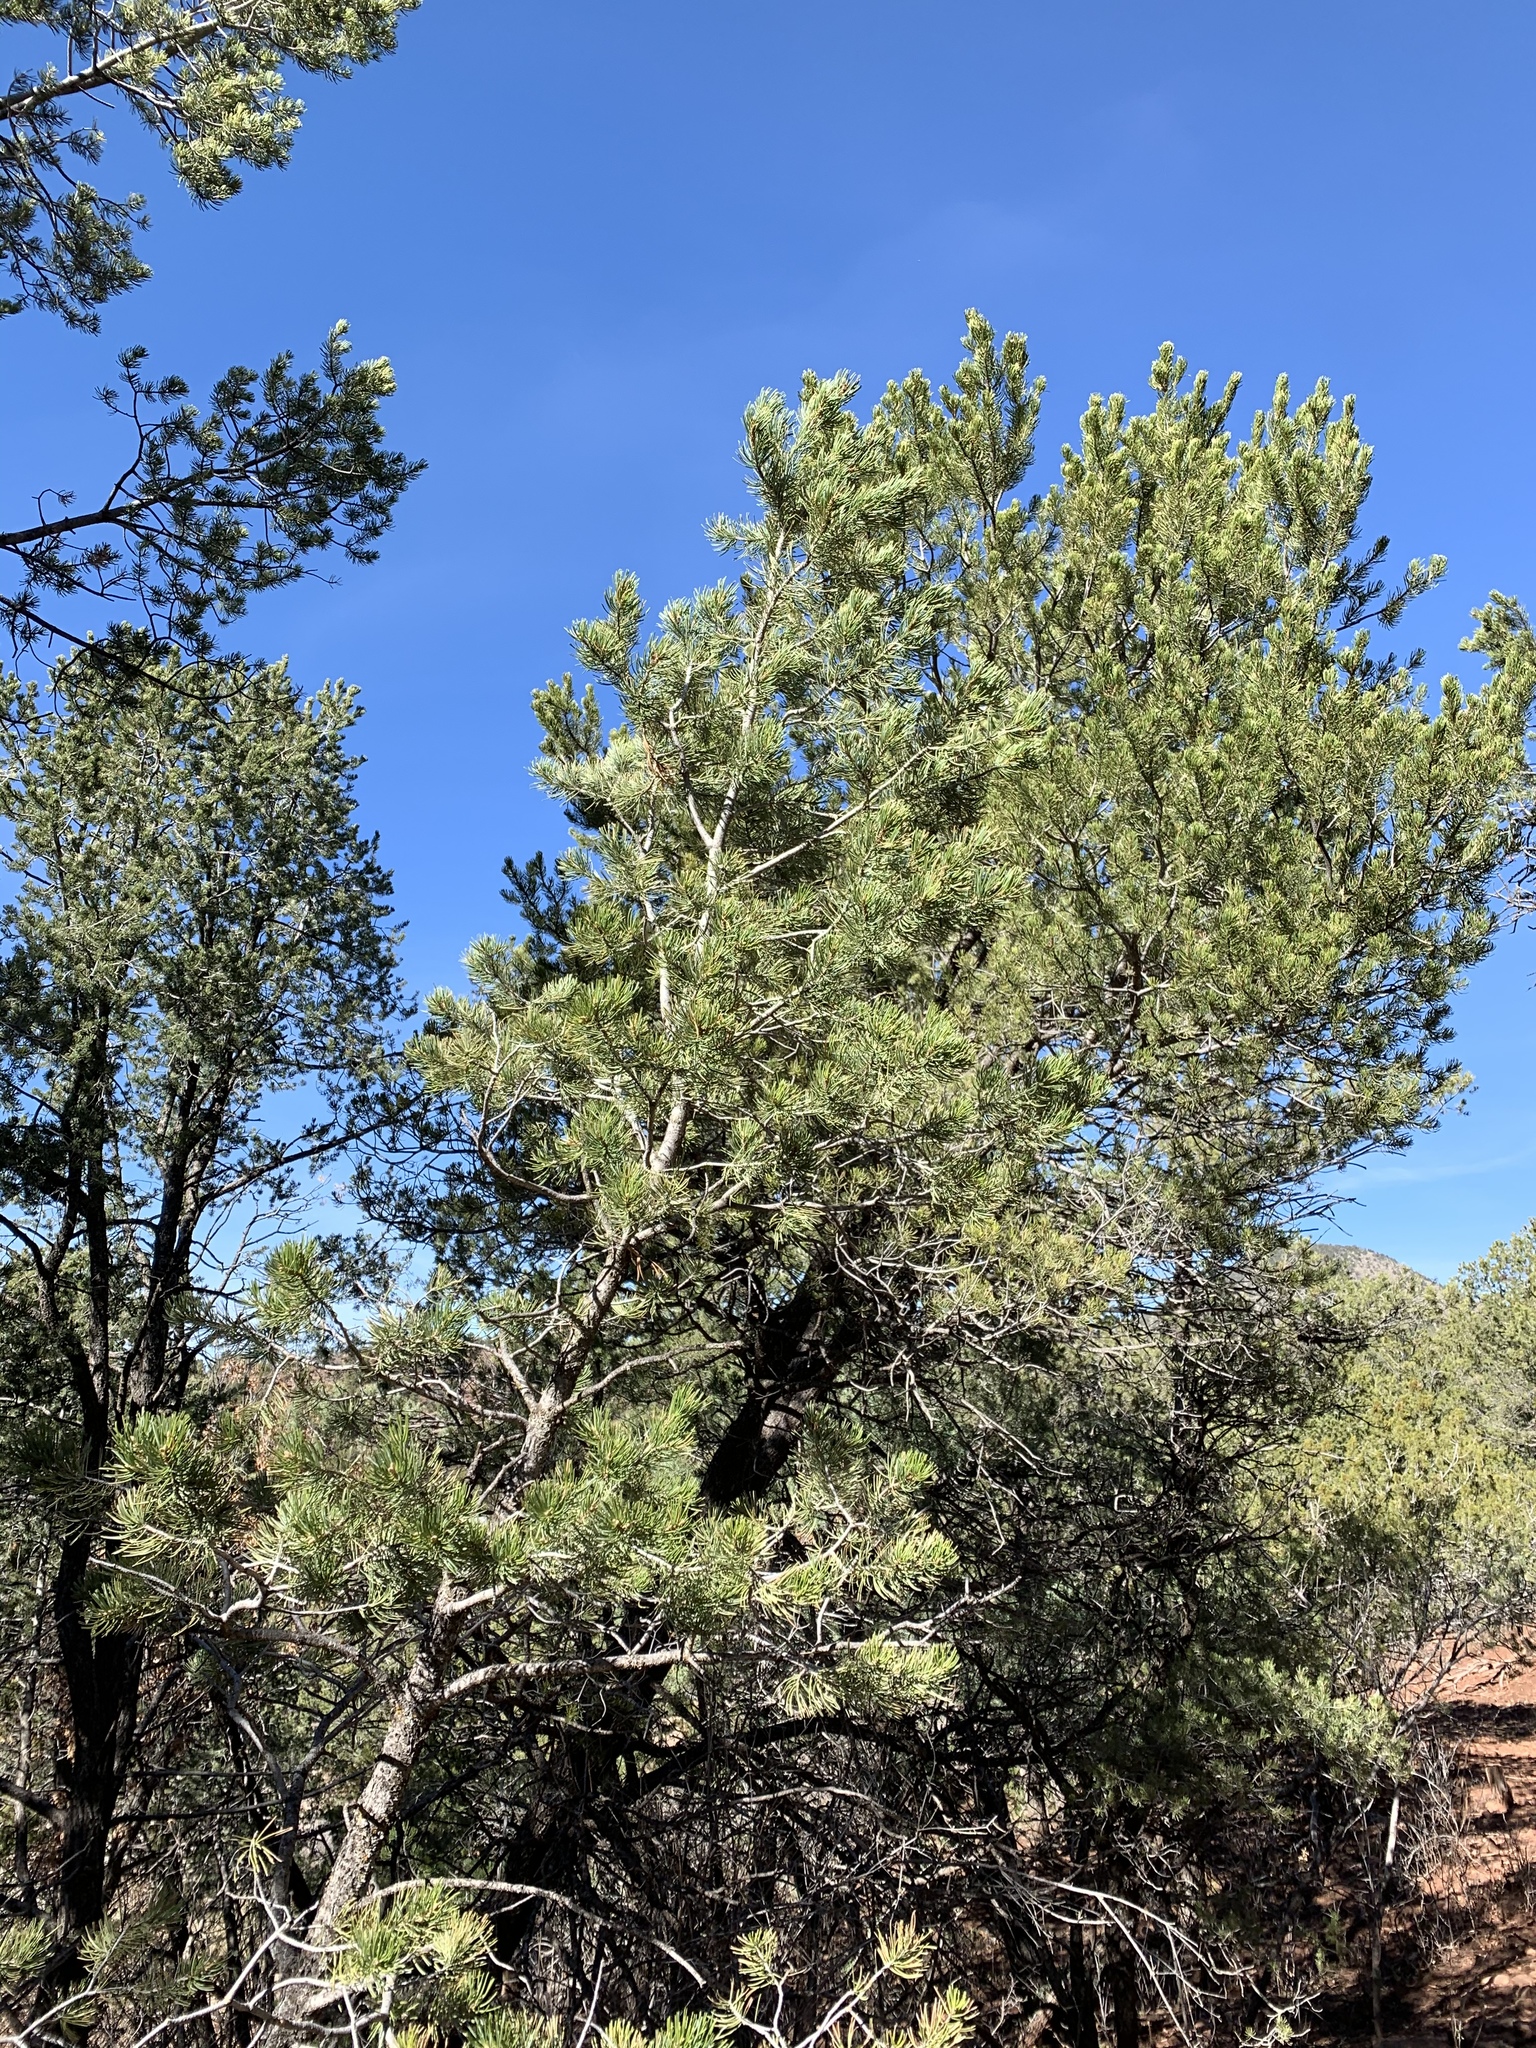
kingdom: Plantae
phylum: Tracheophyta
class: Pinopsida
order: Pinales
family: Pinaceae
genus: Pinus
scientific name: Pinus edulis
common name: Colorado pinyon
